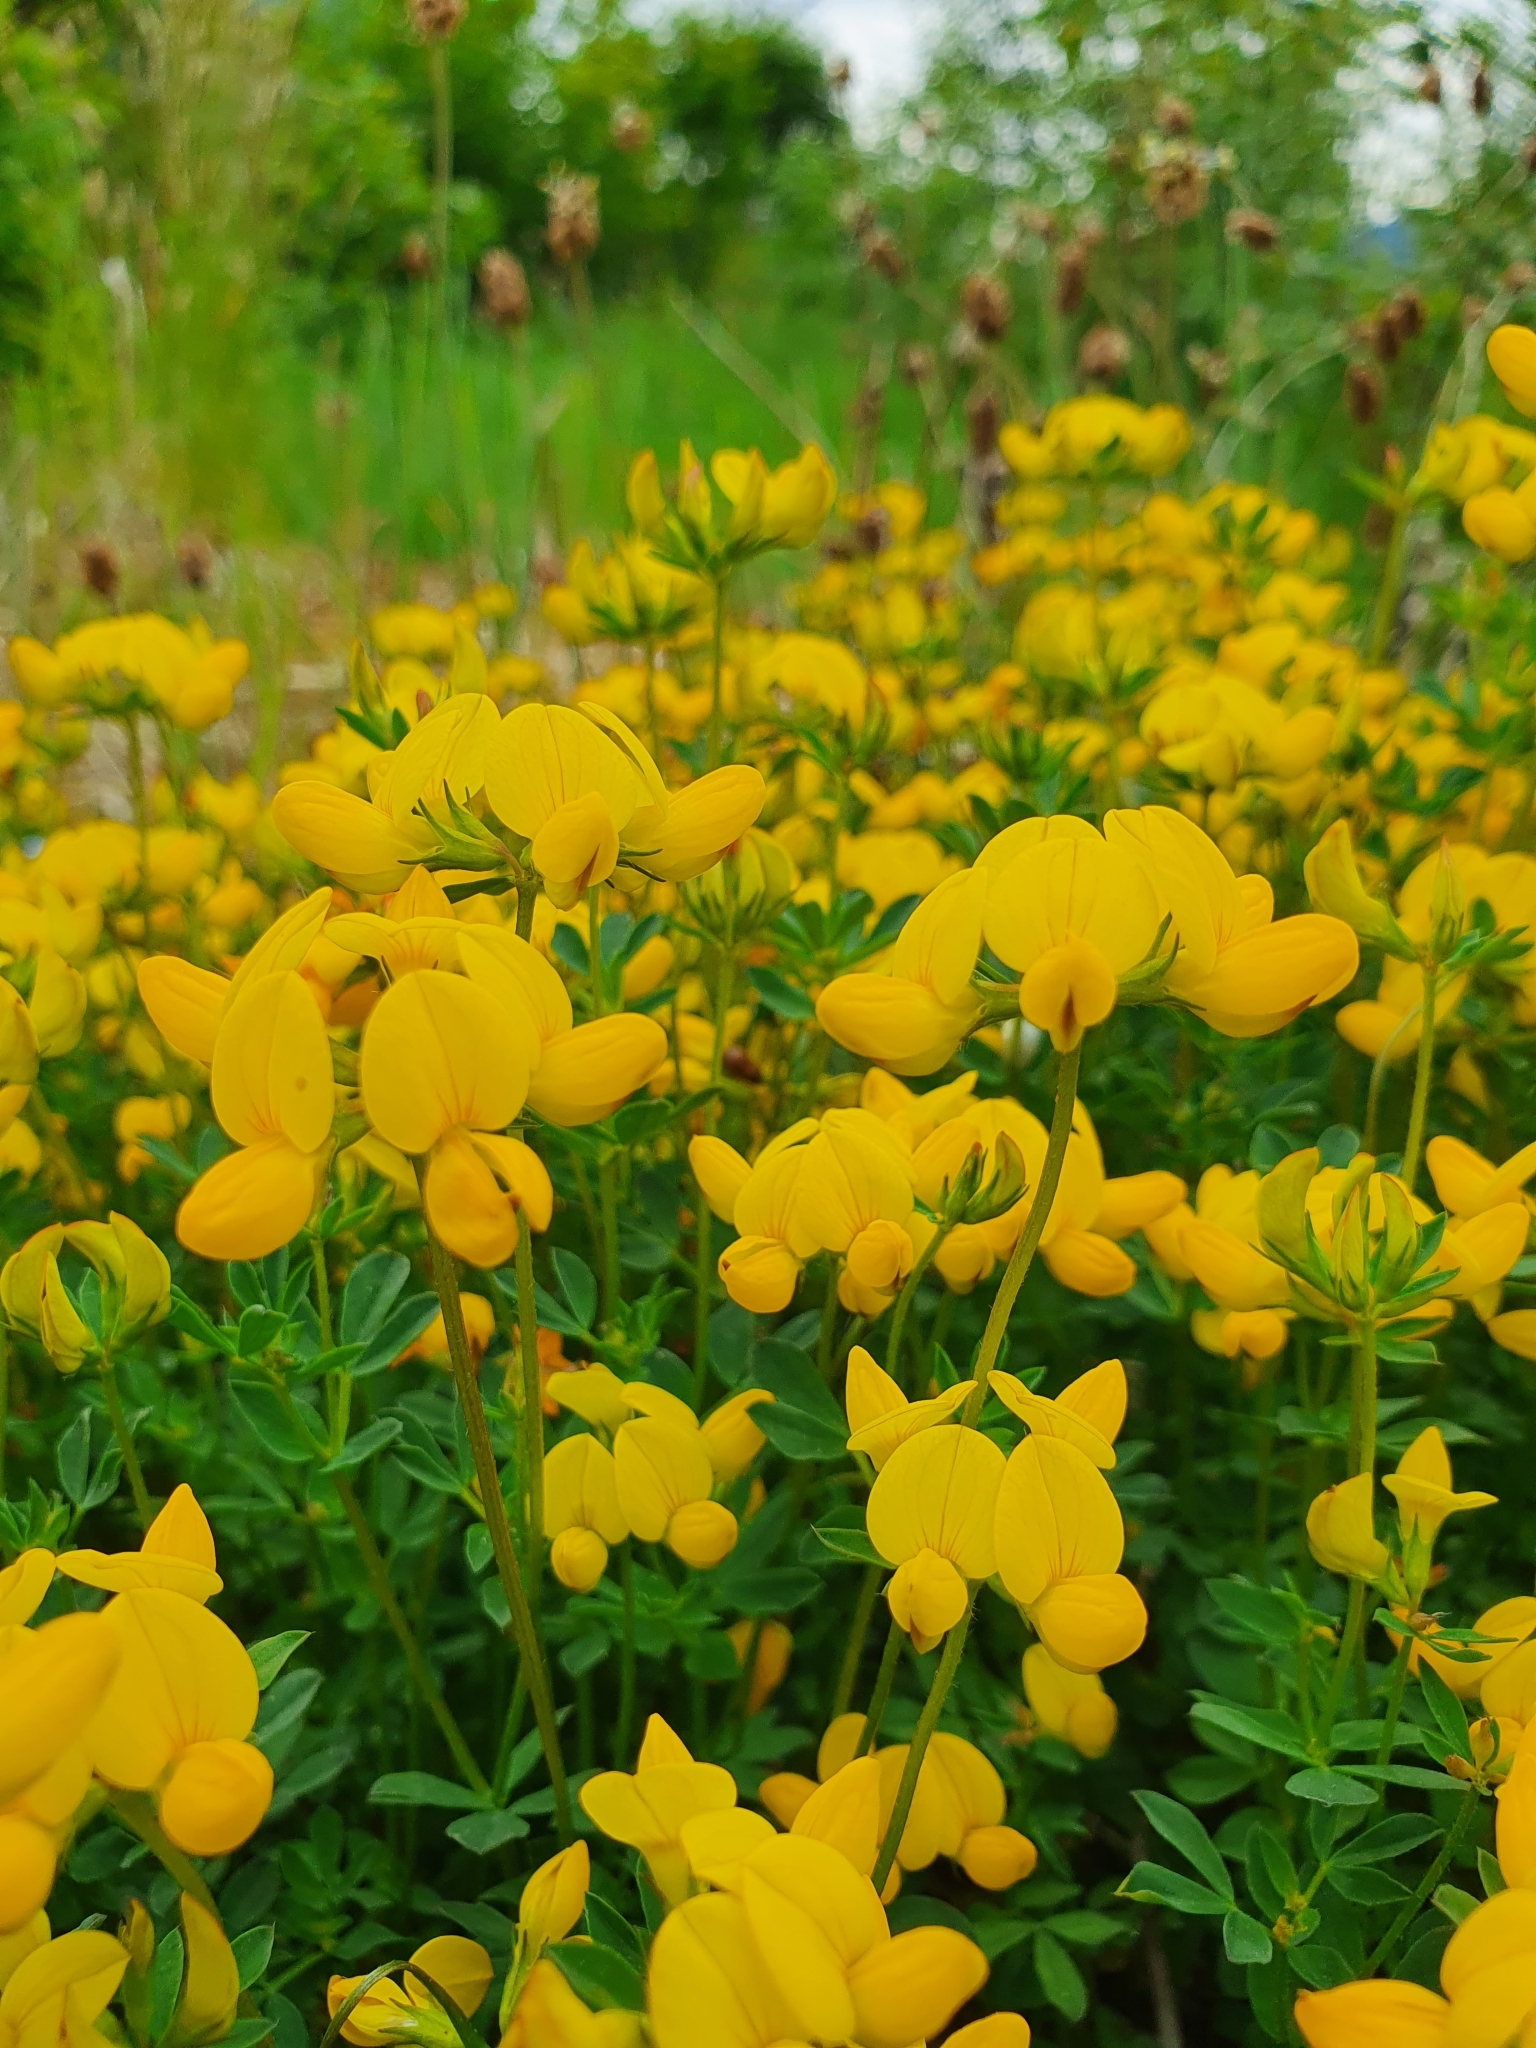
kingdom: Plantae
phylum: Tracheophyta
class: Magnoliopsida
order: Fabales
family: Fabaceae
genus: Lotus
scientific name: Lotus corniculatus
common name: Common bird's-foot-trefoil
